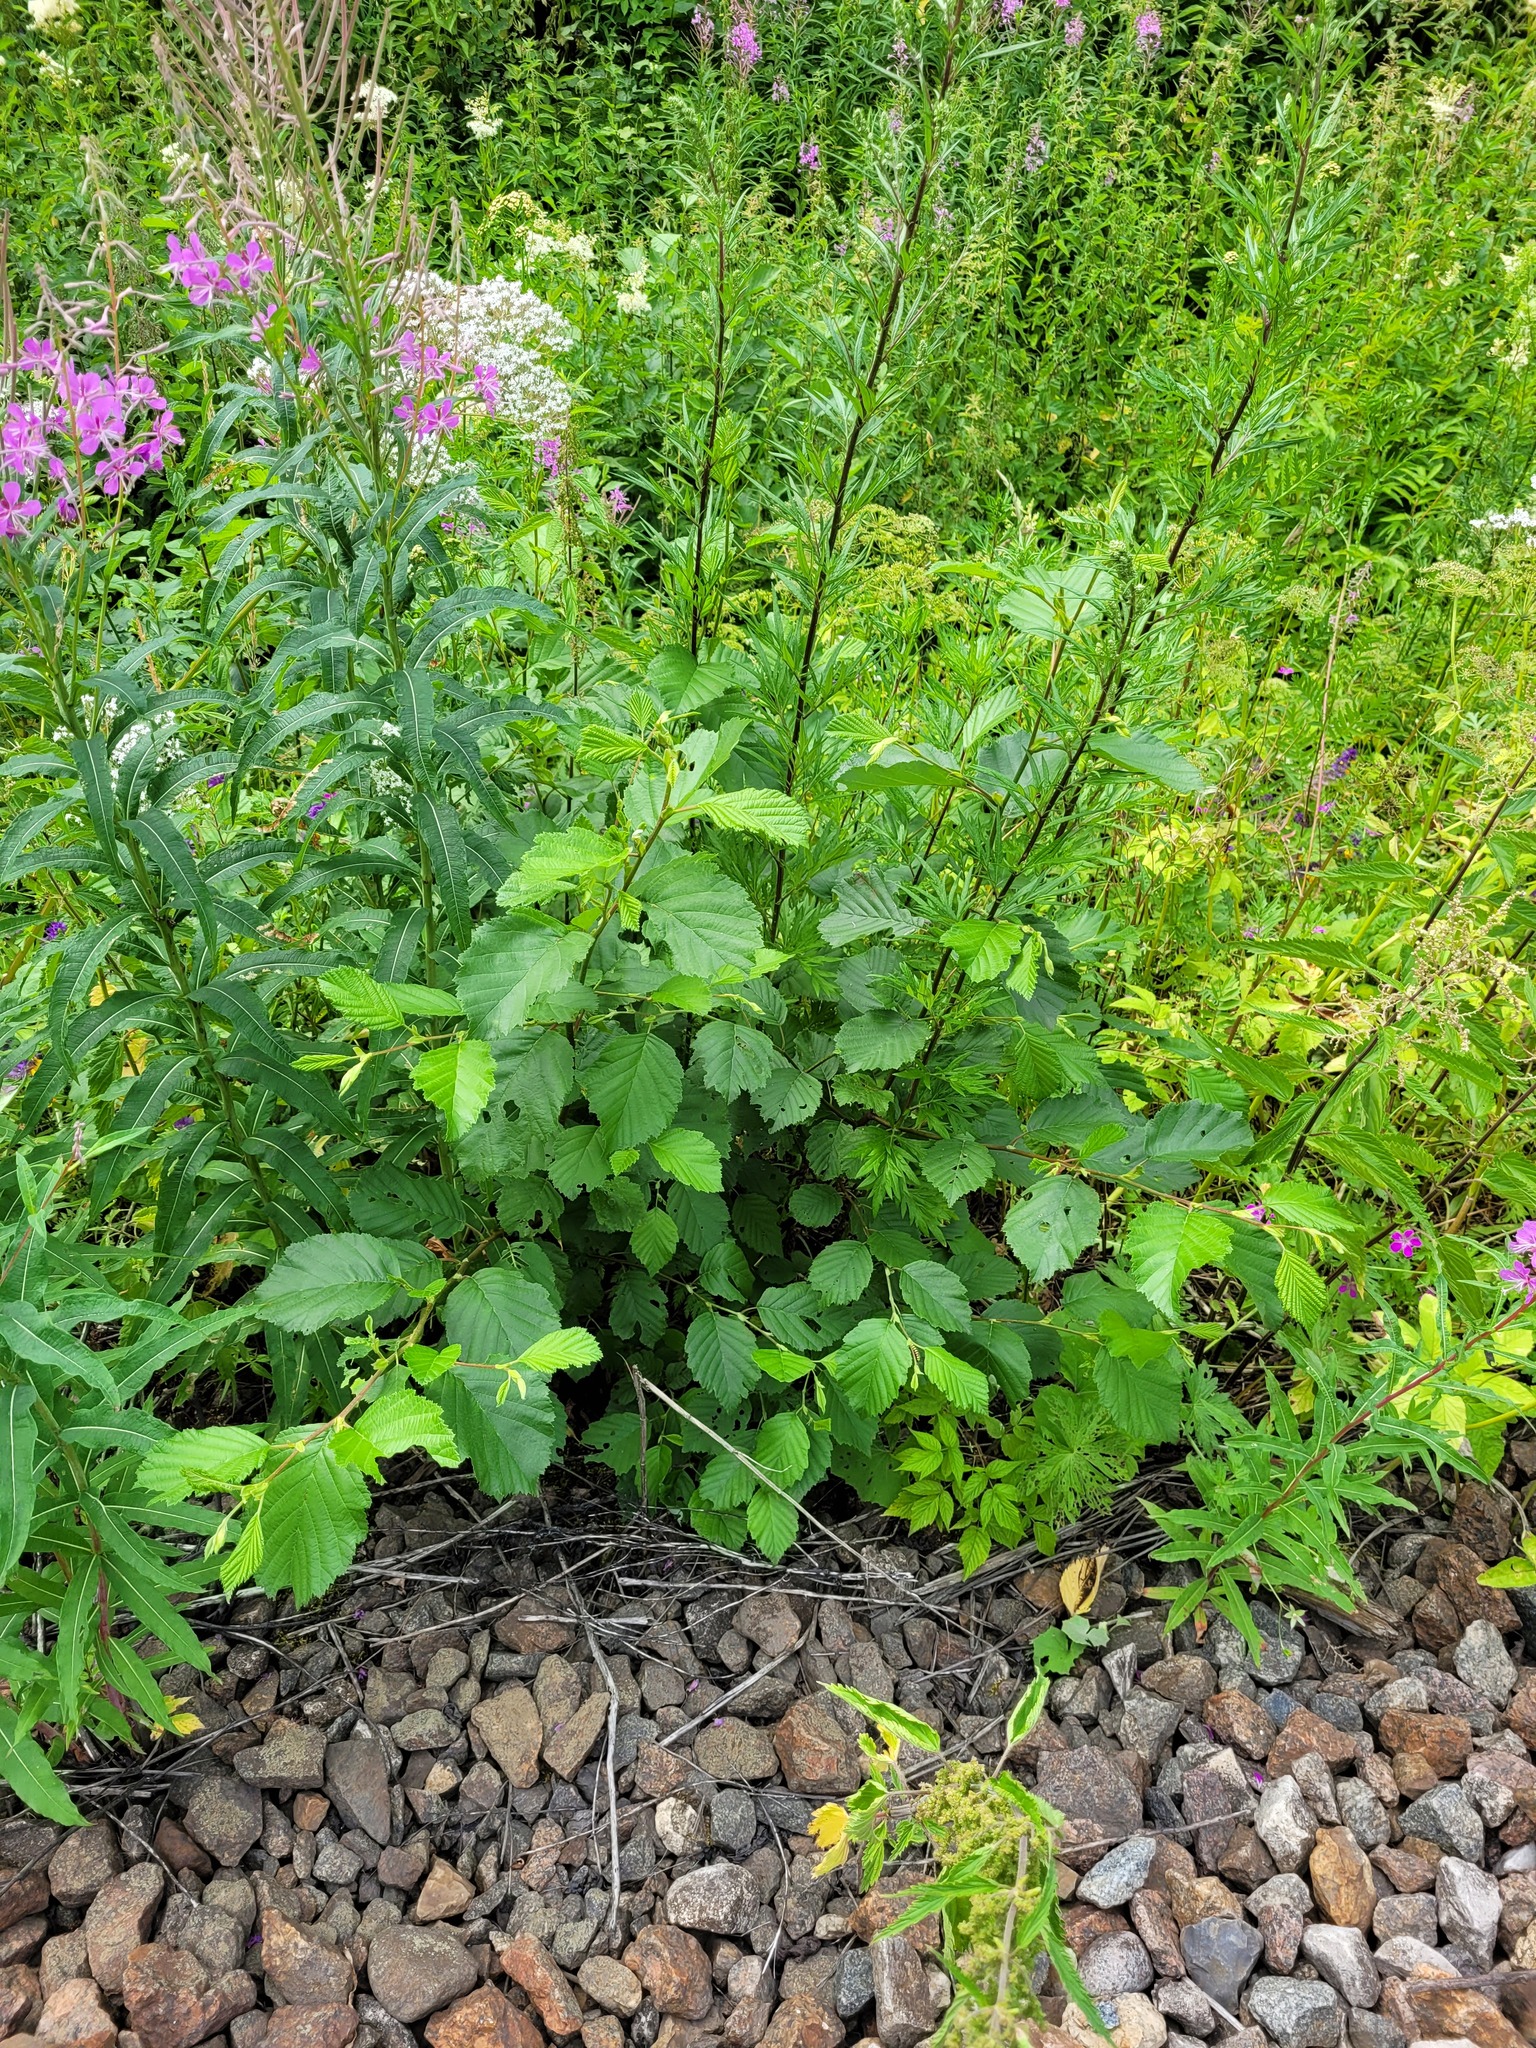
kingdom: Plantae
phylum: Tracheophyta
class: Magnoliopsida
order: Fagales
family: Betulaceae
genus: Alnus
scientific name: Alnus incana
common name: Grey alder
